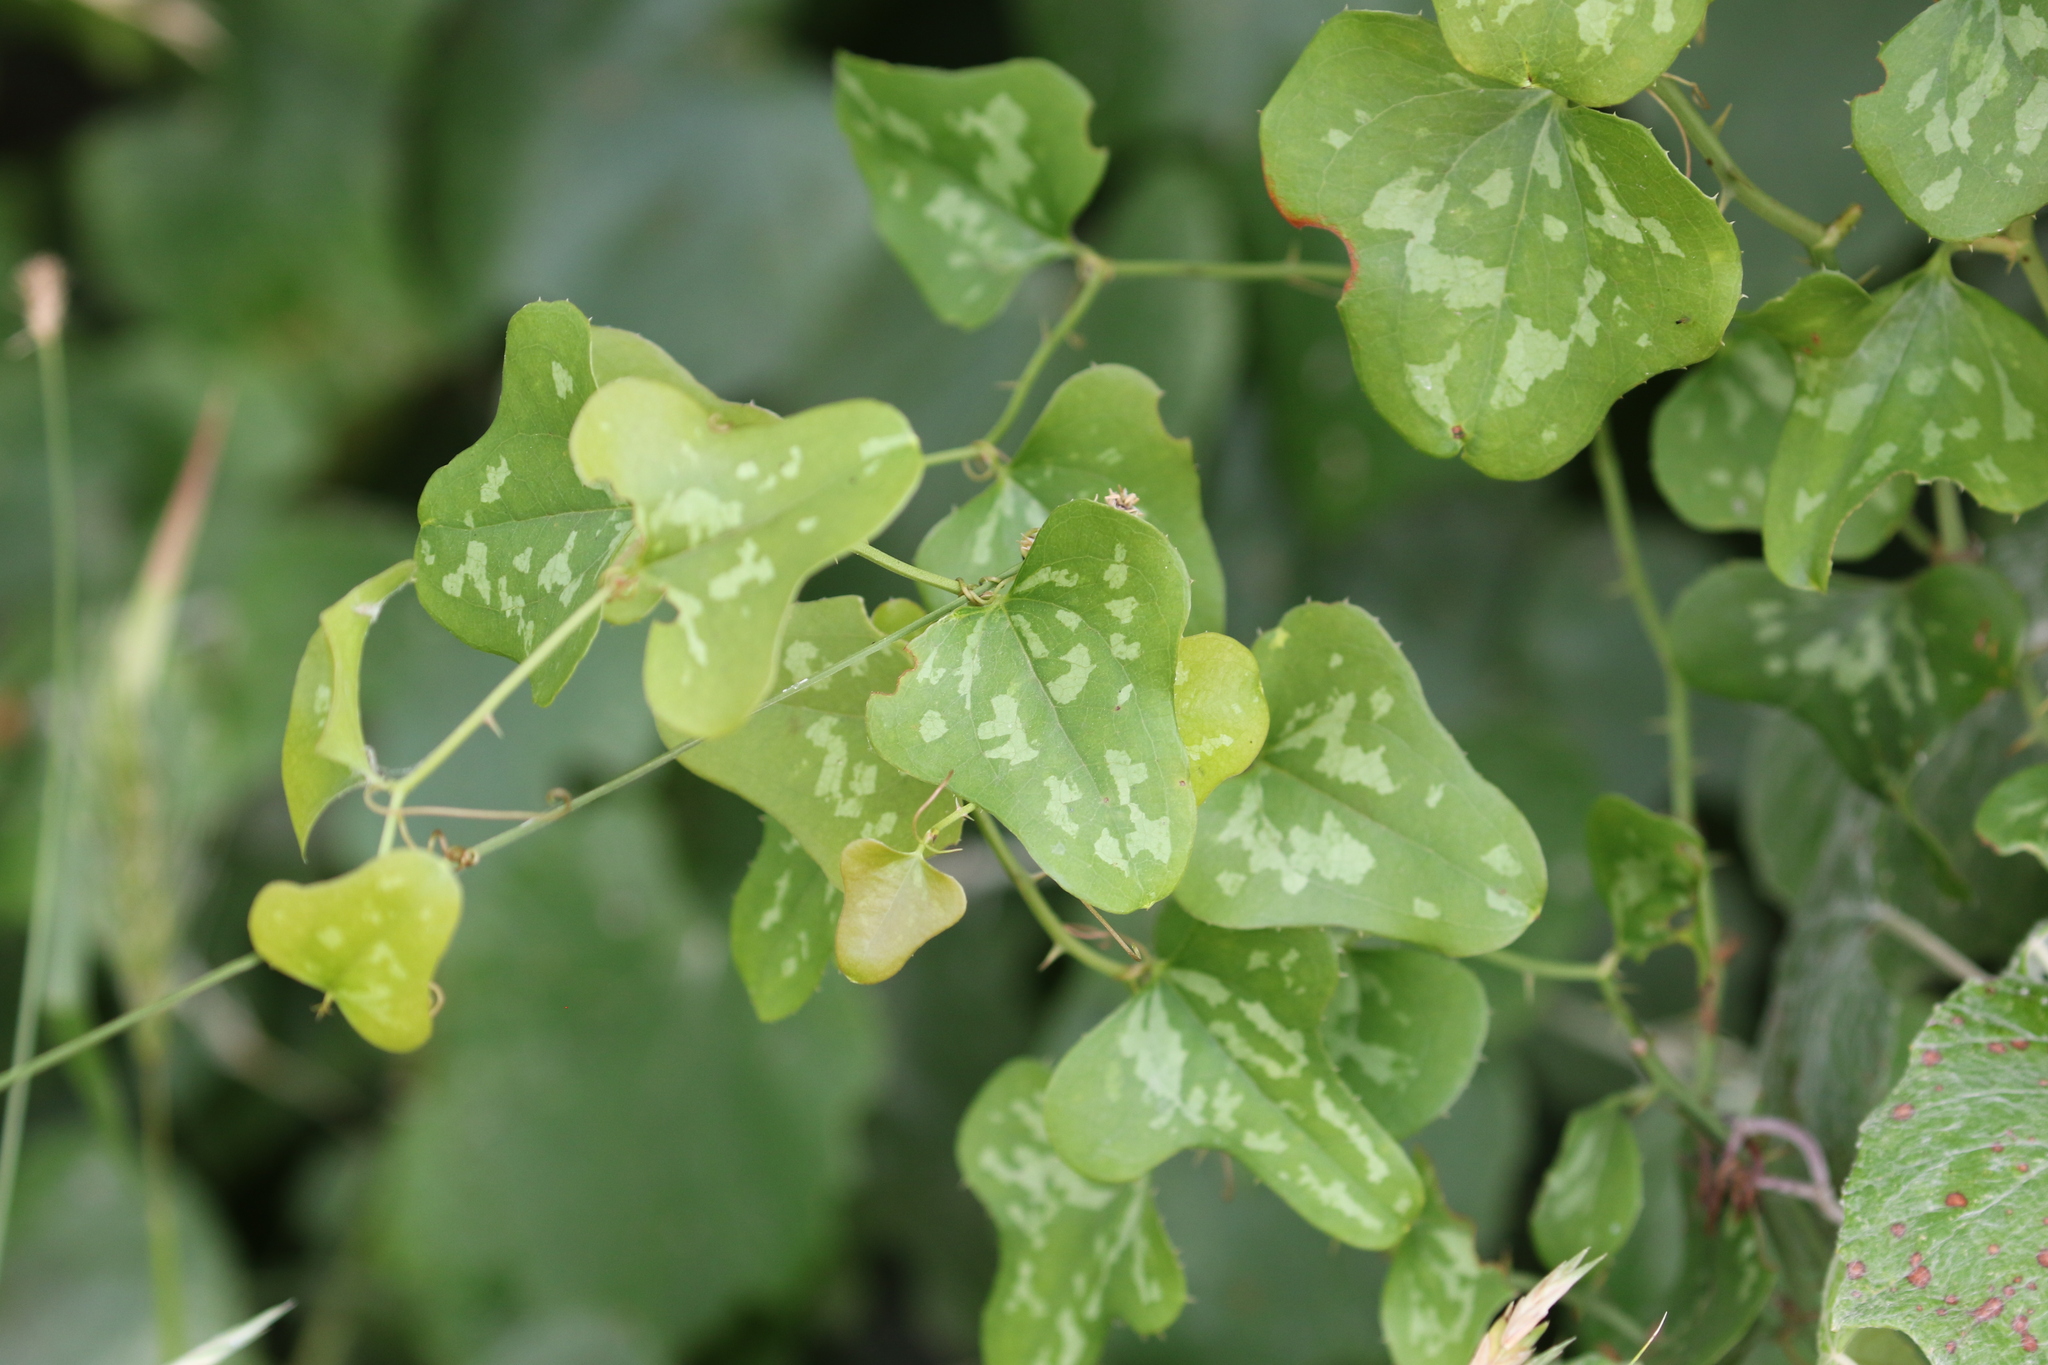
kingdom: Plantae
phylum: Tracheophyta
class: Liliopsida
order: Liliales
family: Smilacaceae
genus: Smilax
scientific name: Smilax bona-nox
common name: Catbrier
